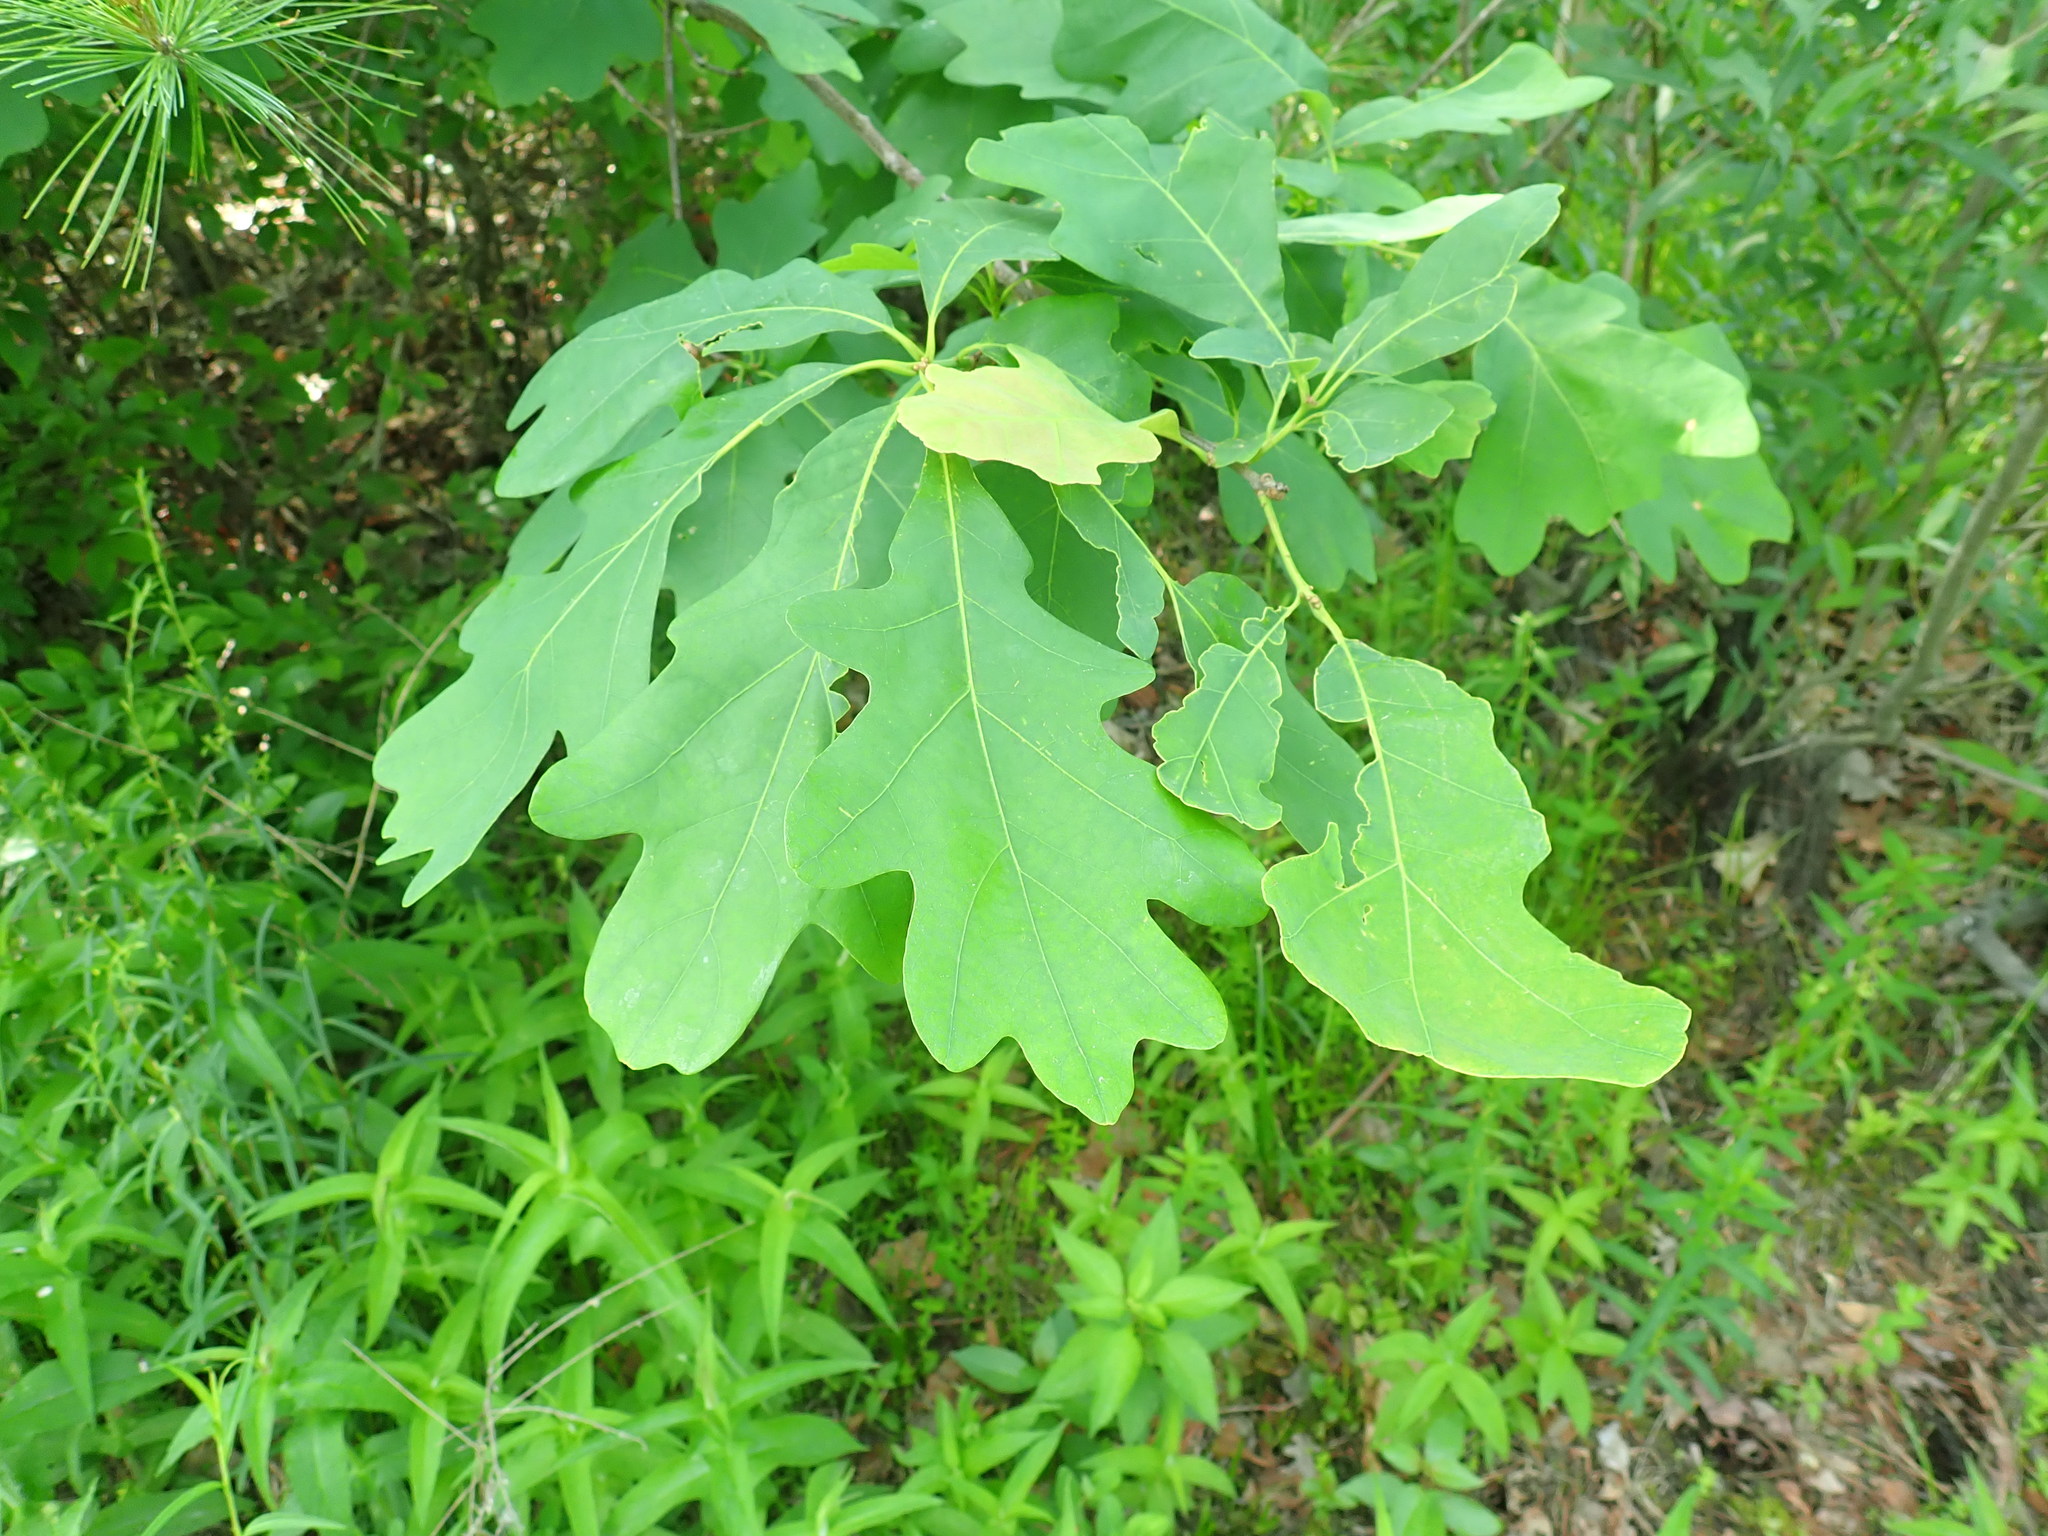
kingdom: Plantae
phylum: Tracheophyta
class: Magnoliopsida
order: Fagales
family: Fagaceae
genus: Quercus
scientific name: Quercus alba
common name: White oak
